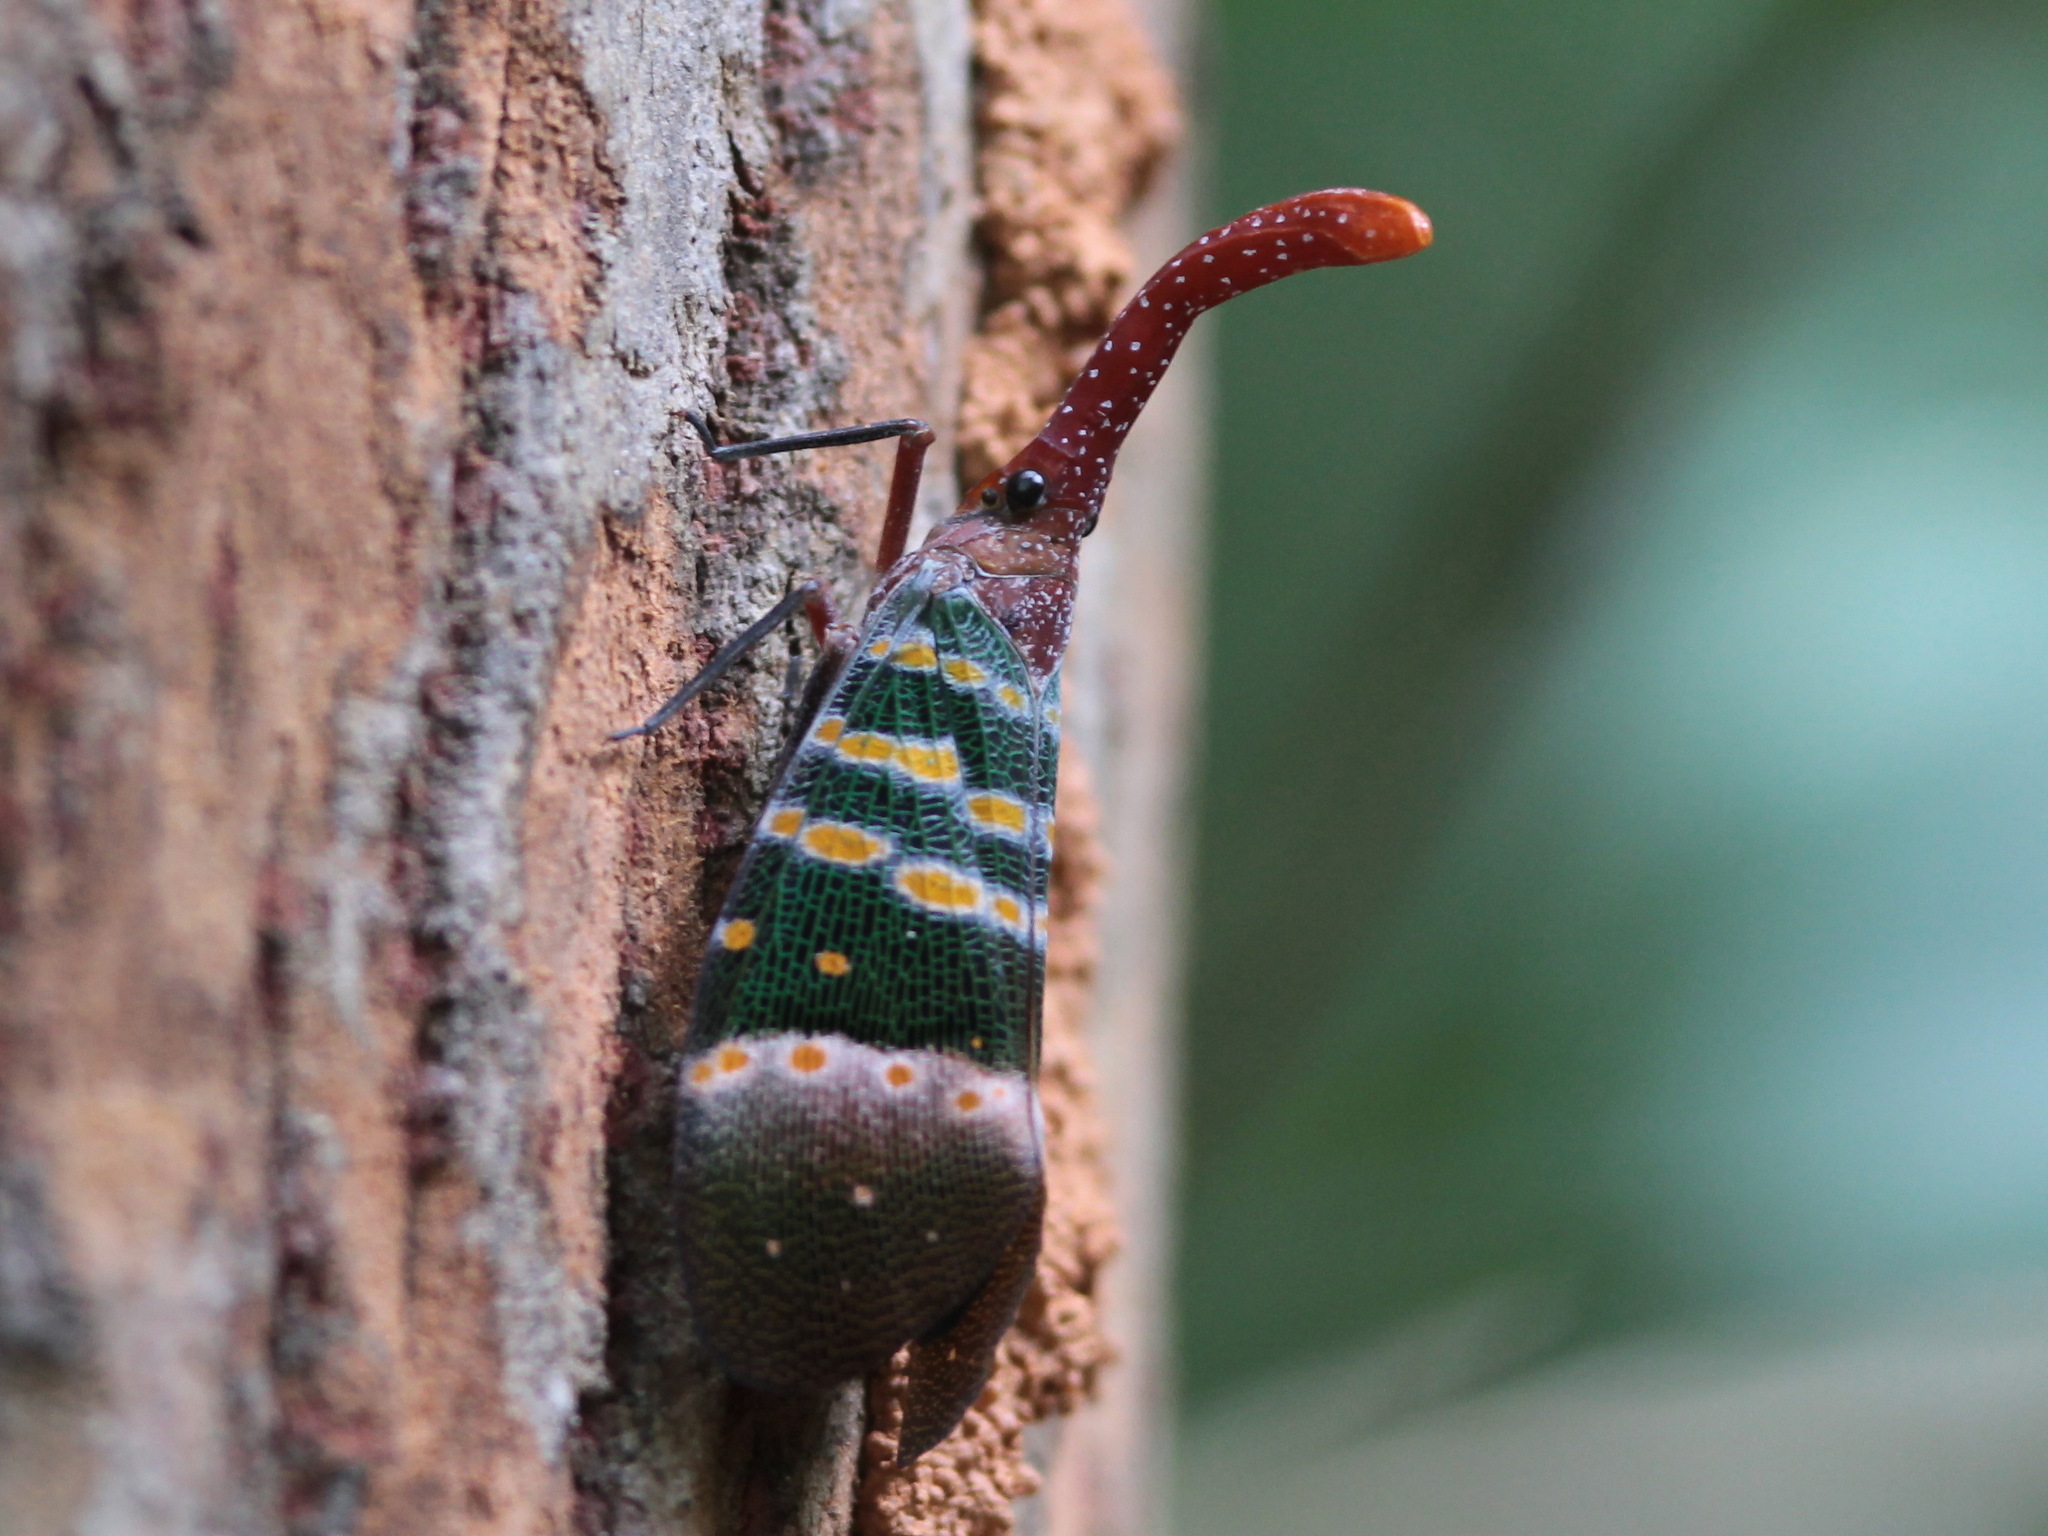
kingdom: Animalia
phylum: Arthropoda
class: Insecta
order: Hemiptera
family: Fulgoridae
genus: Pyrops
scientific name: Pyrops karenius
